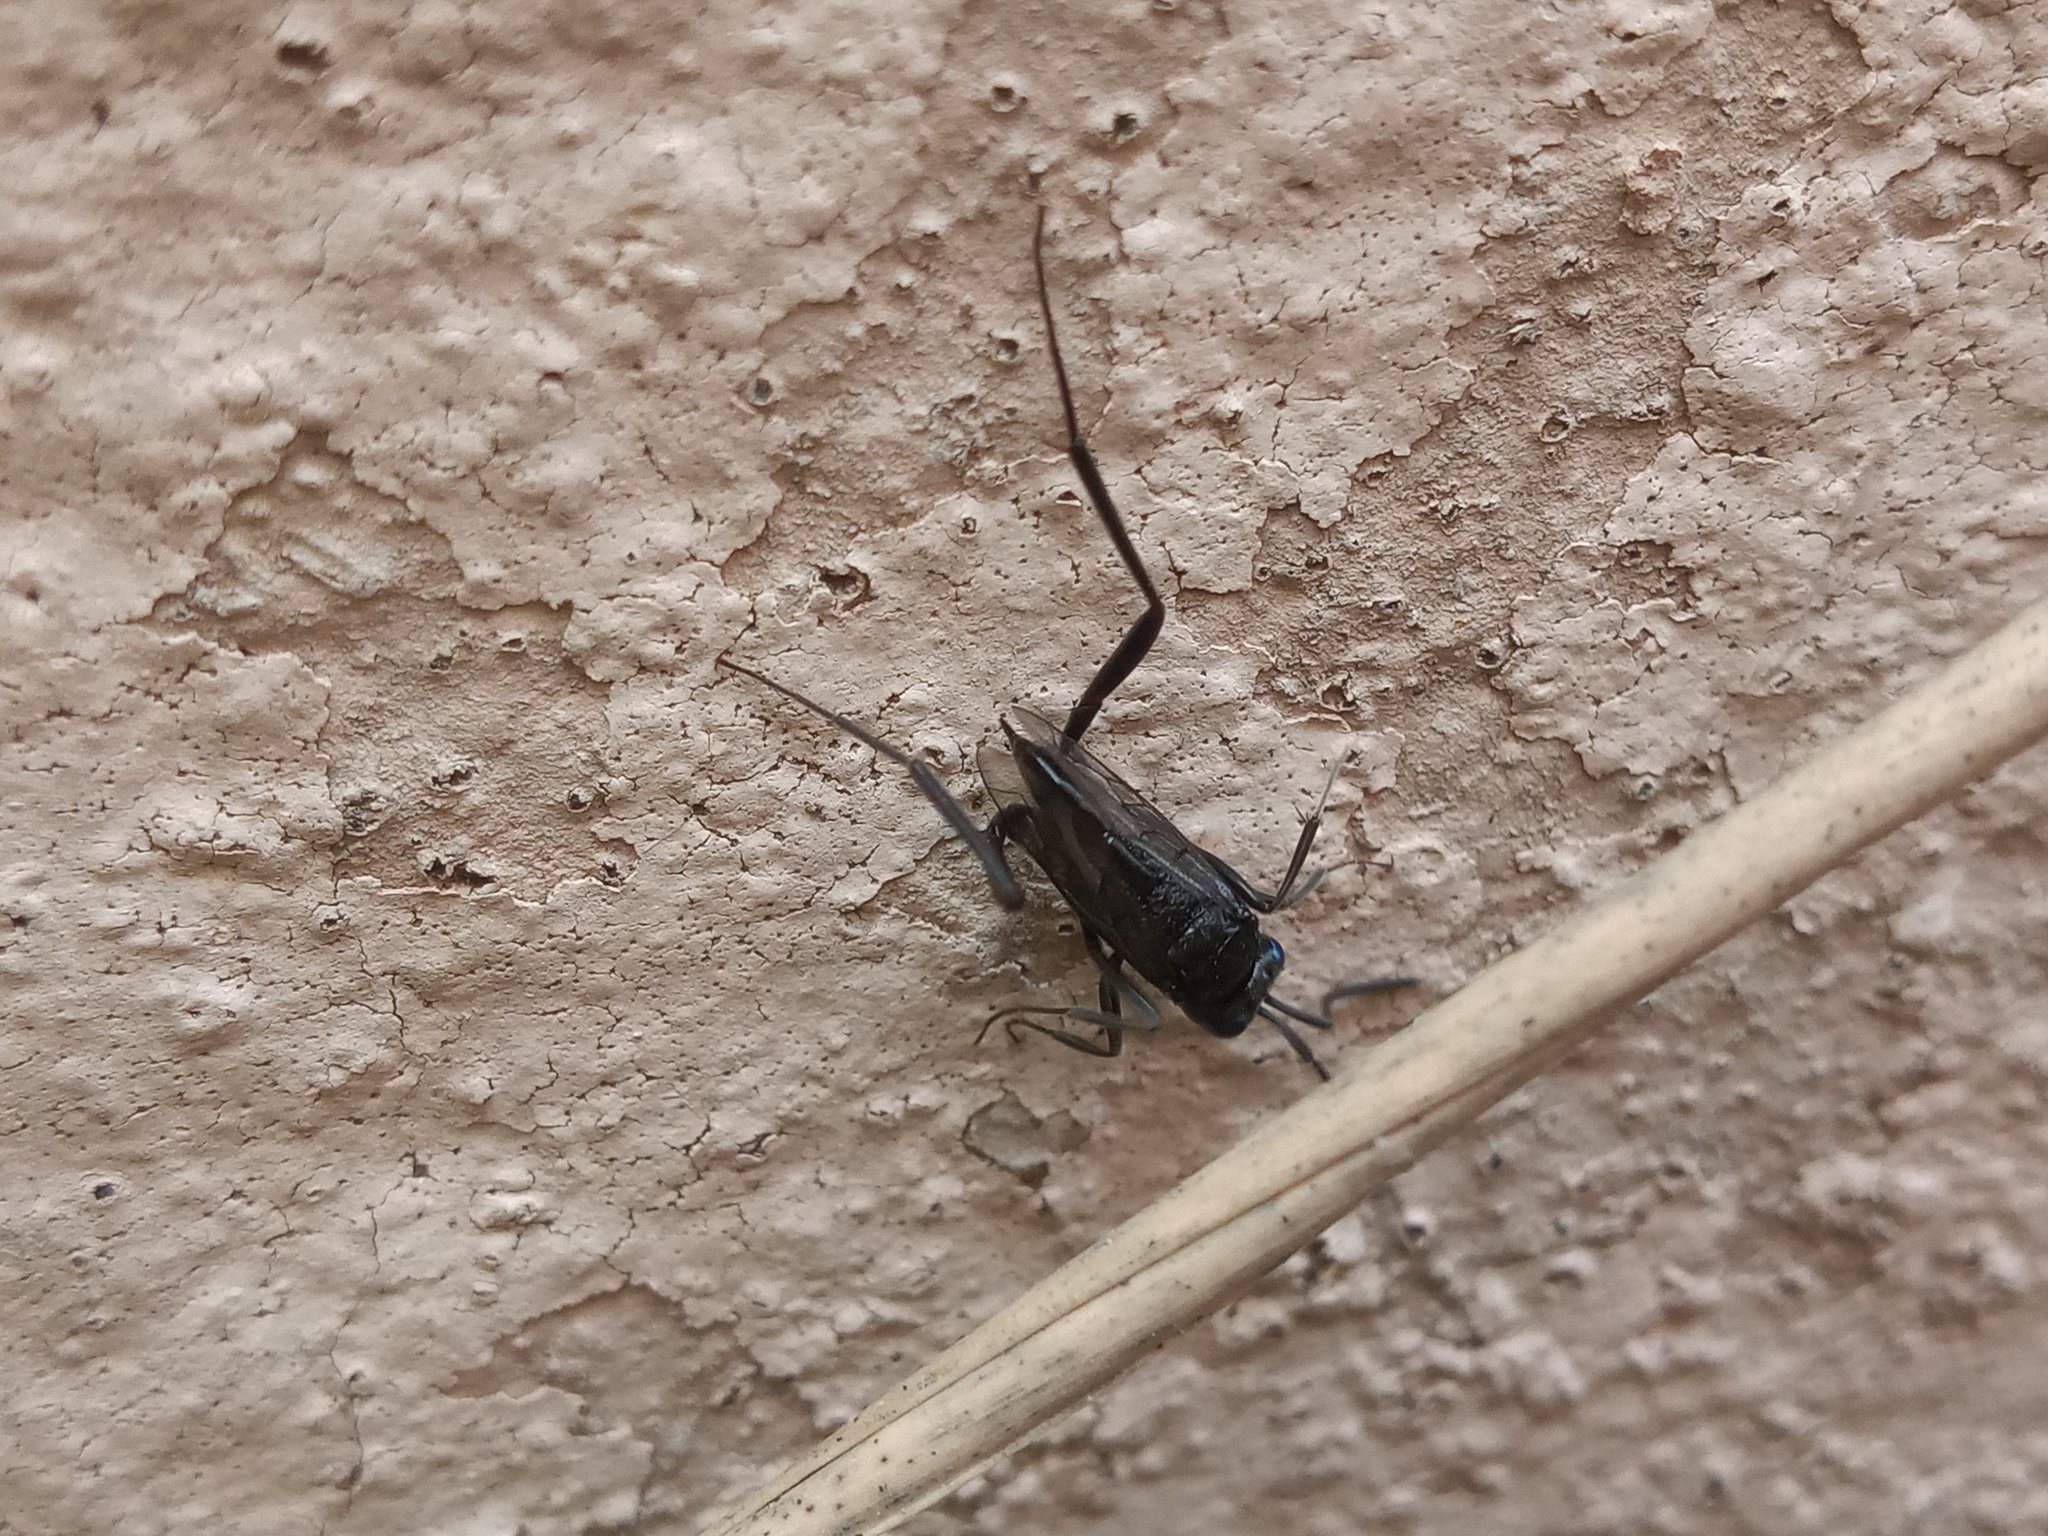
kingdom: Animalia
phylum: Arthropoda
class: Insecta
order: Hymenoptera
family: Evaniidae
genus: Evania
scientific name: Evania appendigaster
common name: Ensign wasp
